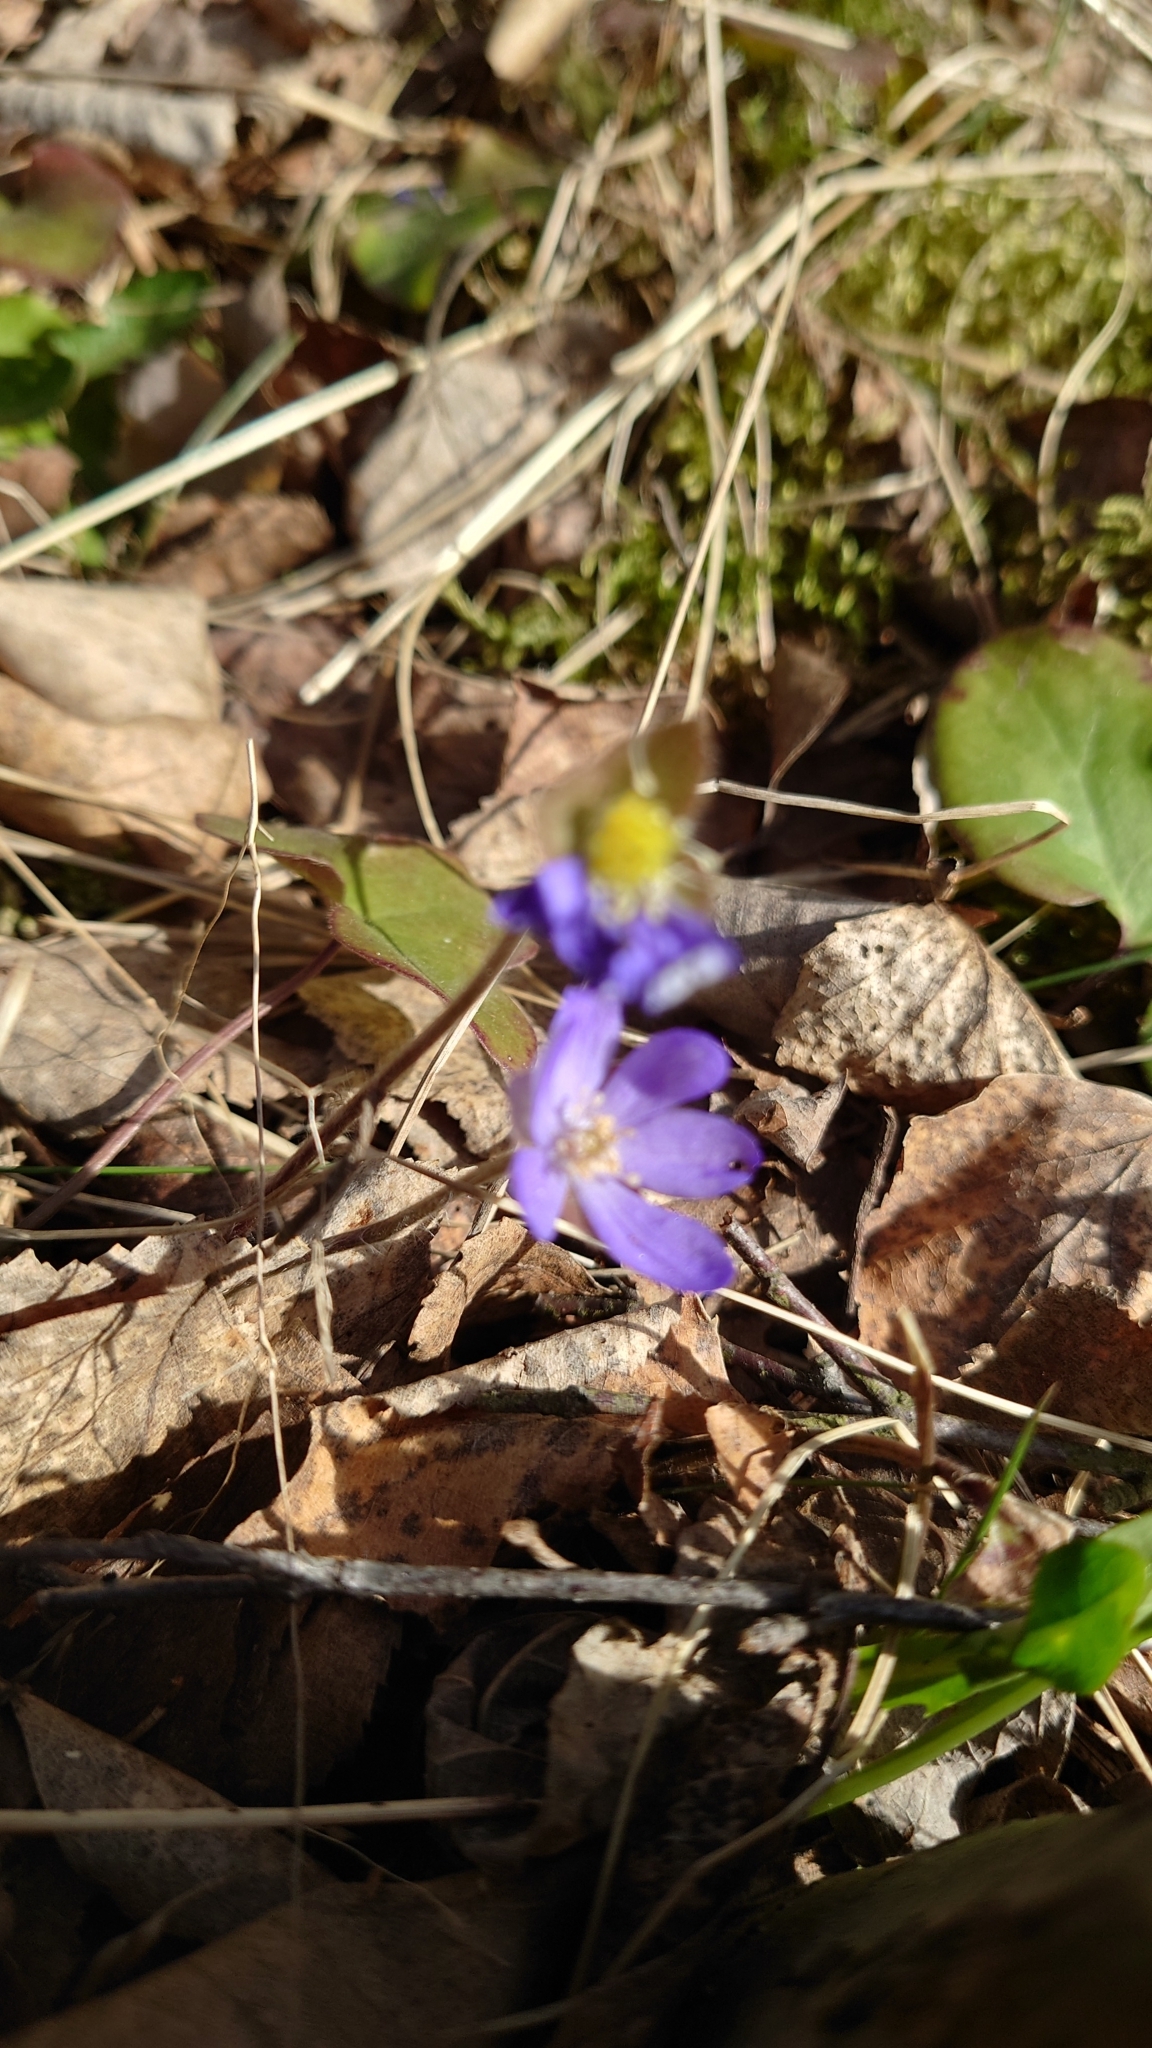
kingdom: Plantae
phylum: Tracheophyta
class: Magnoliopsida
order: Ranunculales
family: Ranunculaceae
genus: Hepatica
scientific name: Hepatica nobilis
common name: Liverleaf
